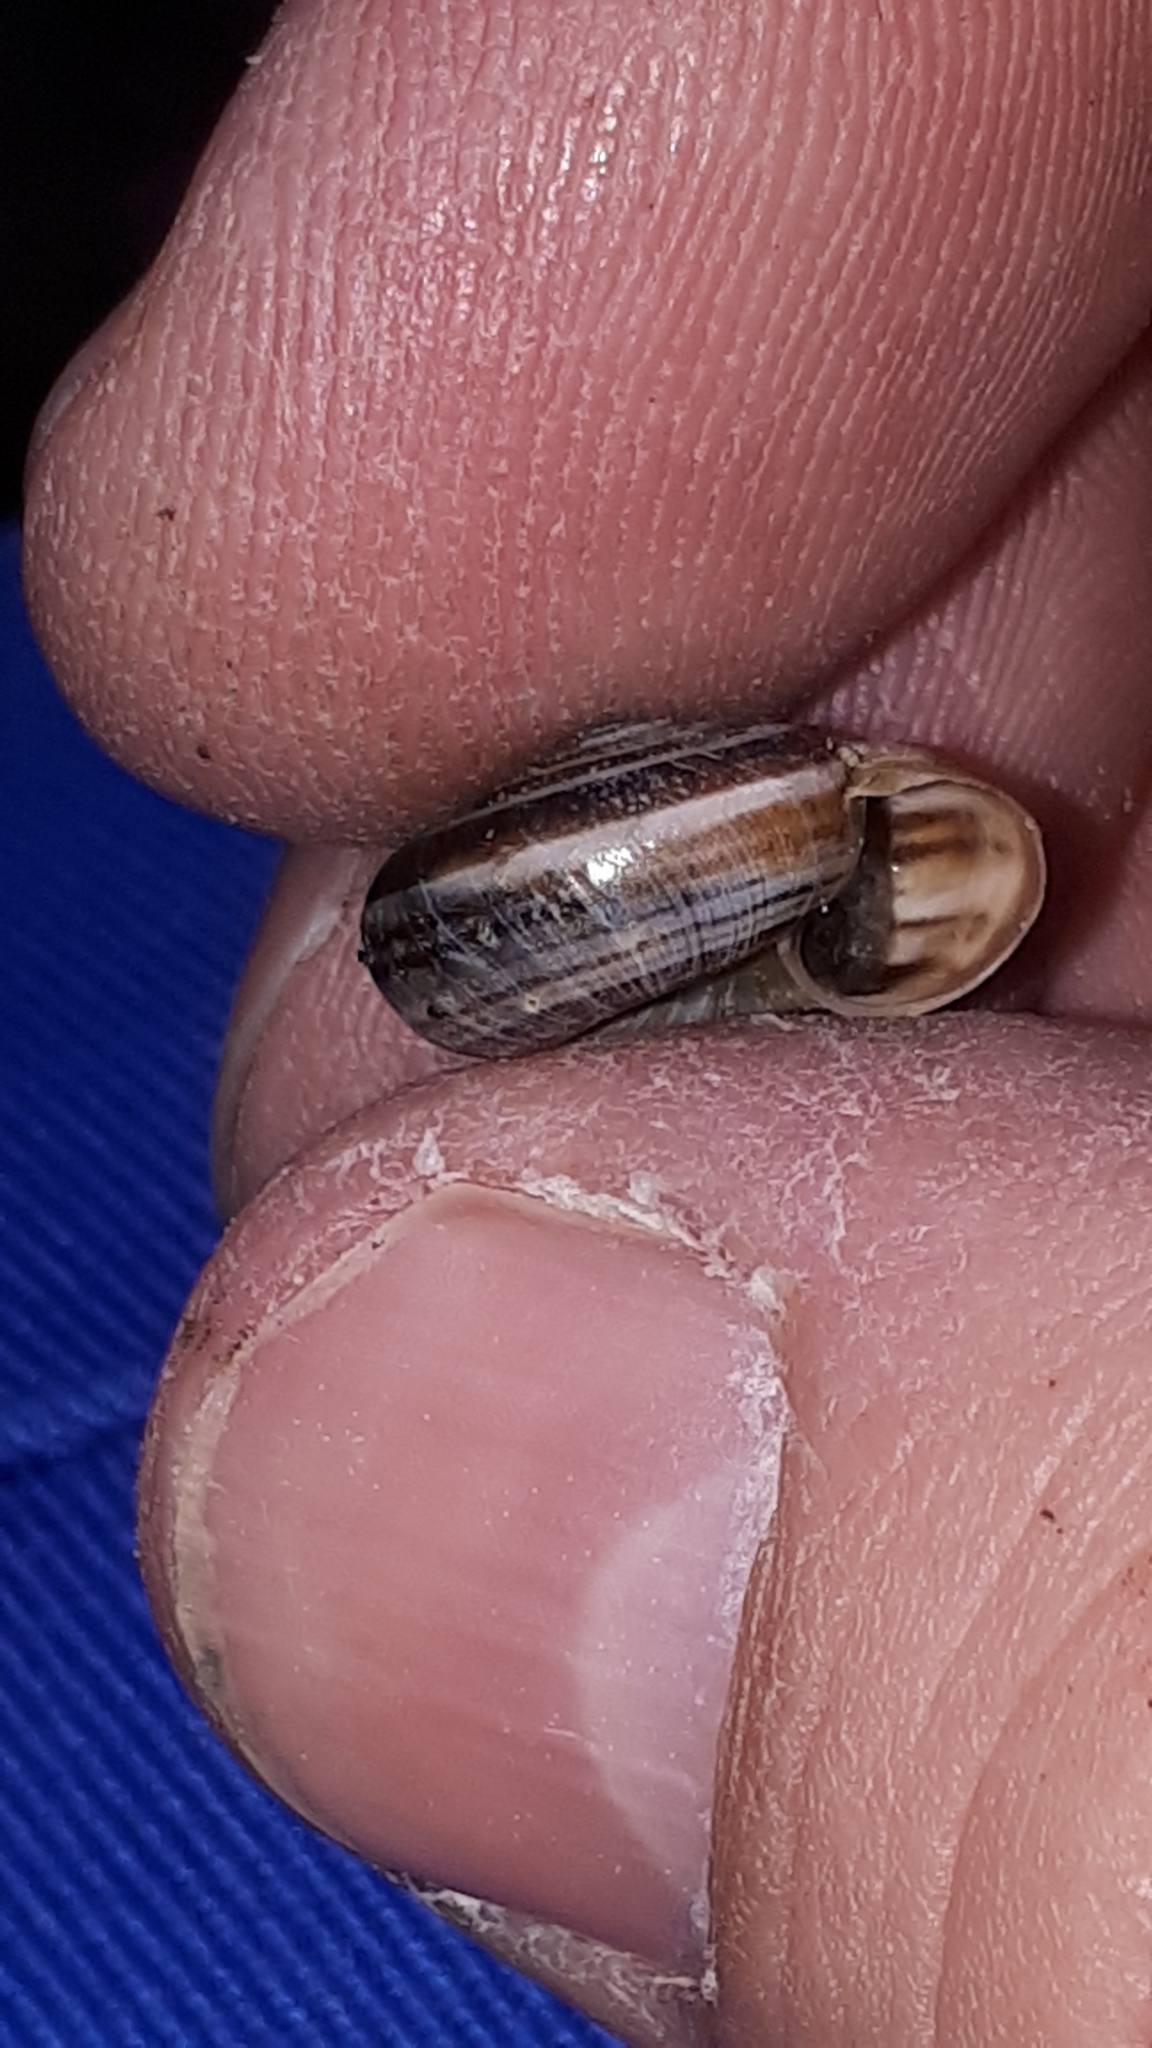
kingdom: Animalia
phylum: Mollusca
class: Gastropoda
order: Stylommatophora
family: Geomitridae
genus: Helicella
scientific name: Helicella itala
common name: Heath snail
